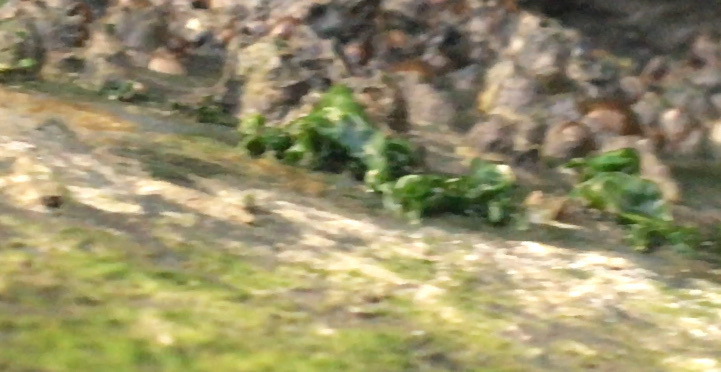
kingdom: Animalia
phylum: Cnidaria
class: Anthozoa
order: Actiniaria
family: Diadumenidae
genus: Diadumene
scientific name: Diadumene lineata
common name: Orange-striped anemone
